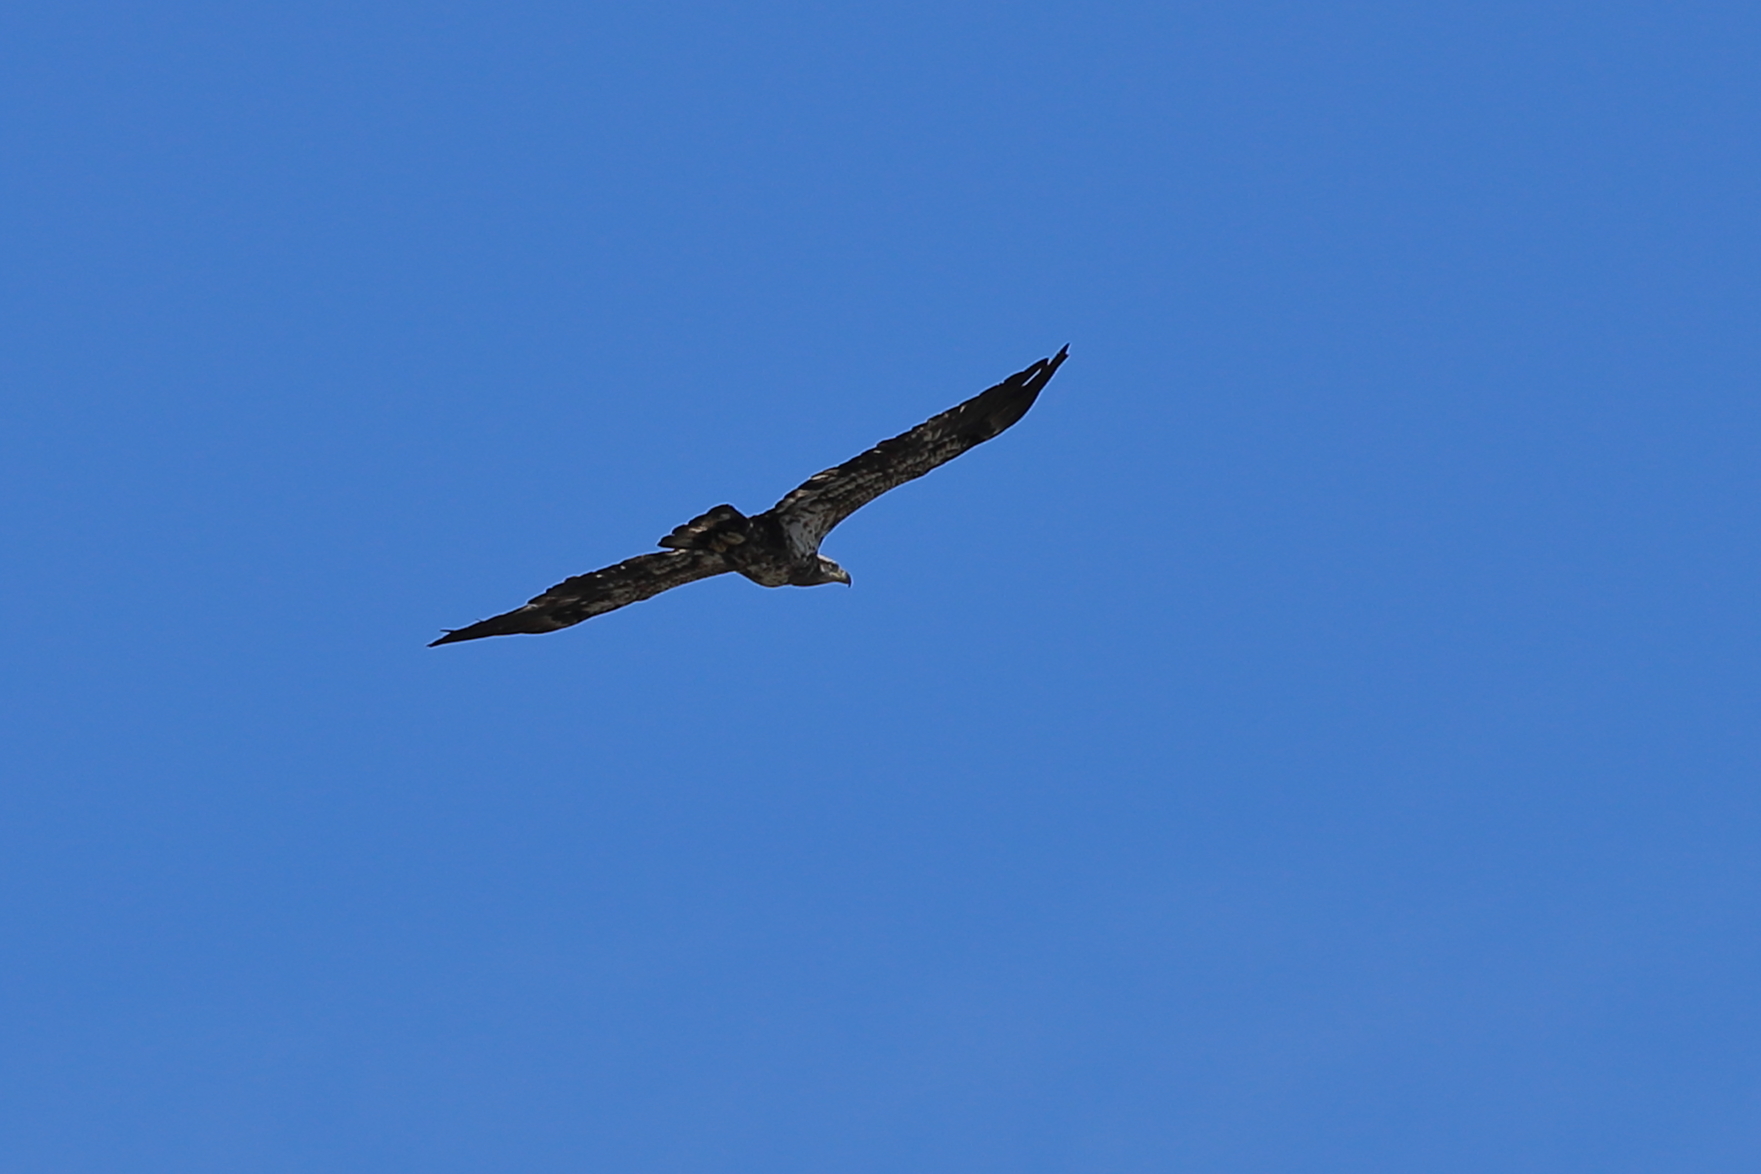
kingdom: Animalia
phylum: Chordata
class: Aves
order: Accipitriformes
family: Accipitridae
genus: Haliaeetus
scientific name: Haliaeetus leucocephalus
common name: Bald eagle
